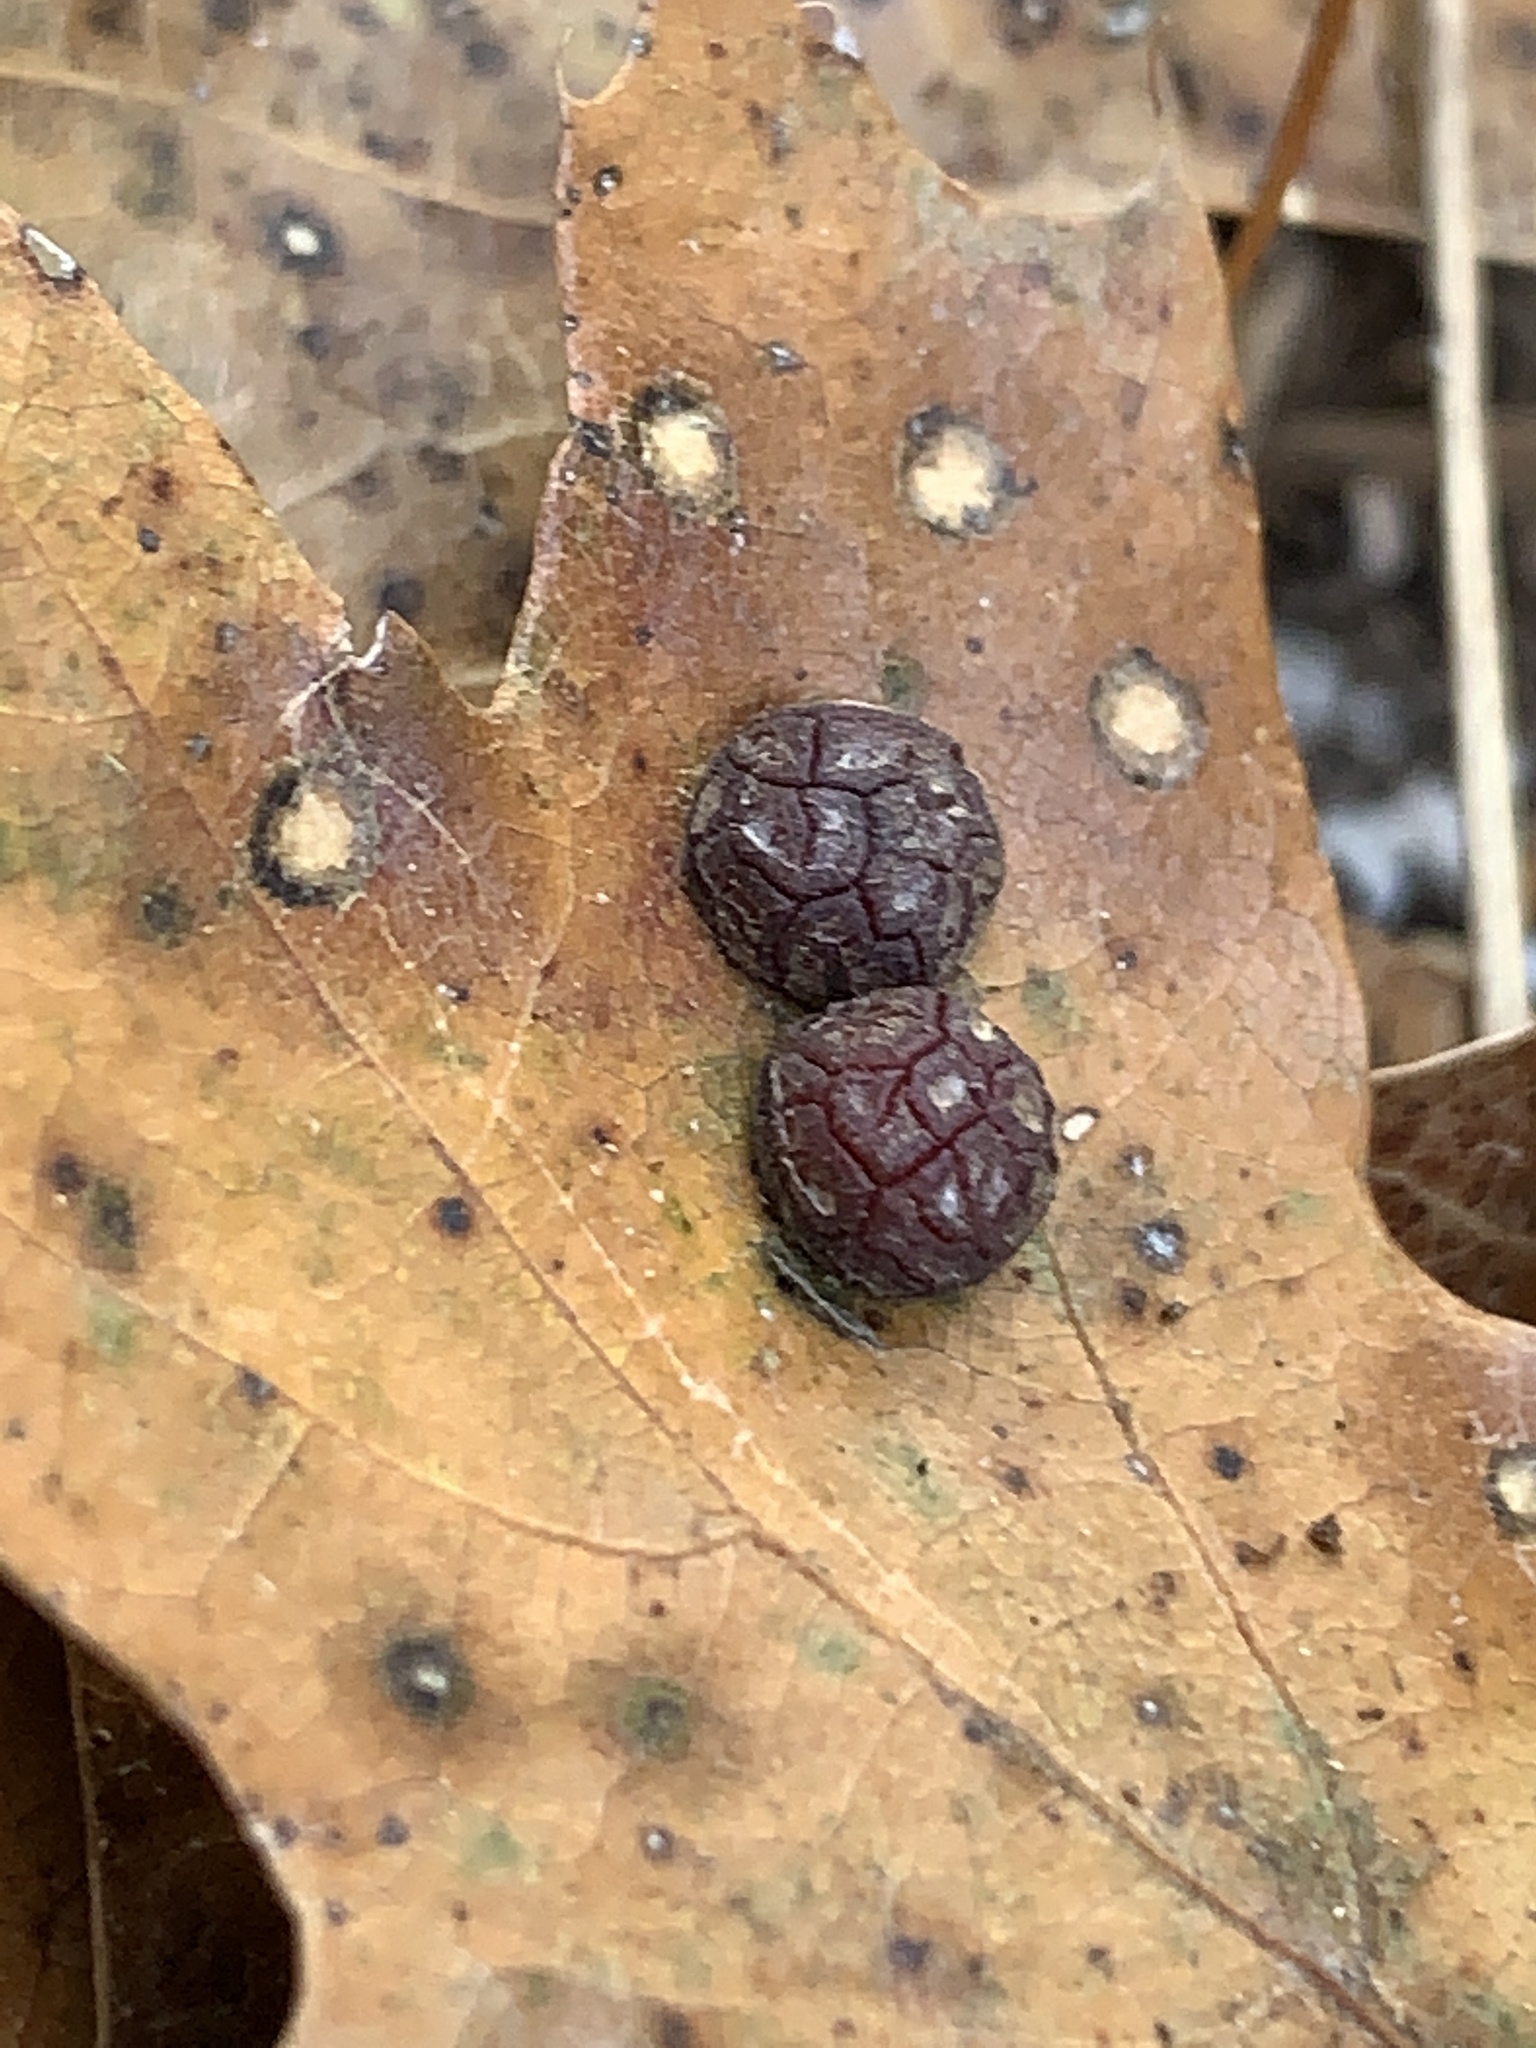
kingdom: Animalia
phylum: Arthropoda
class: Insecta
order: Diptera
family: Cecidomyiidae
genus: Polystepha
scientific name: Polystepha pilulae
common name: Oak leaf gall midge
